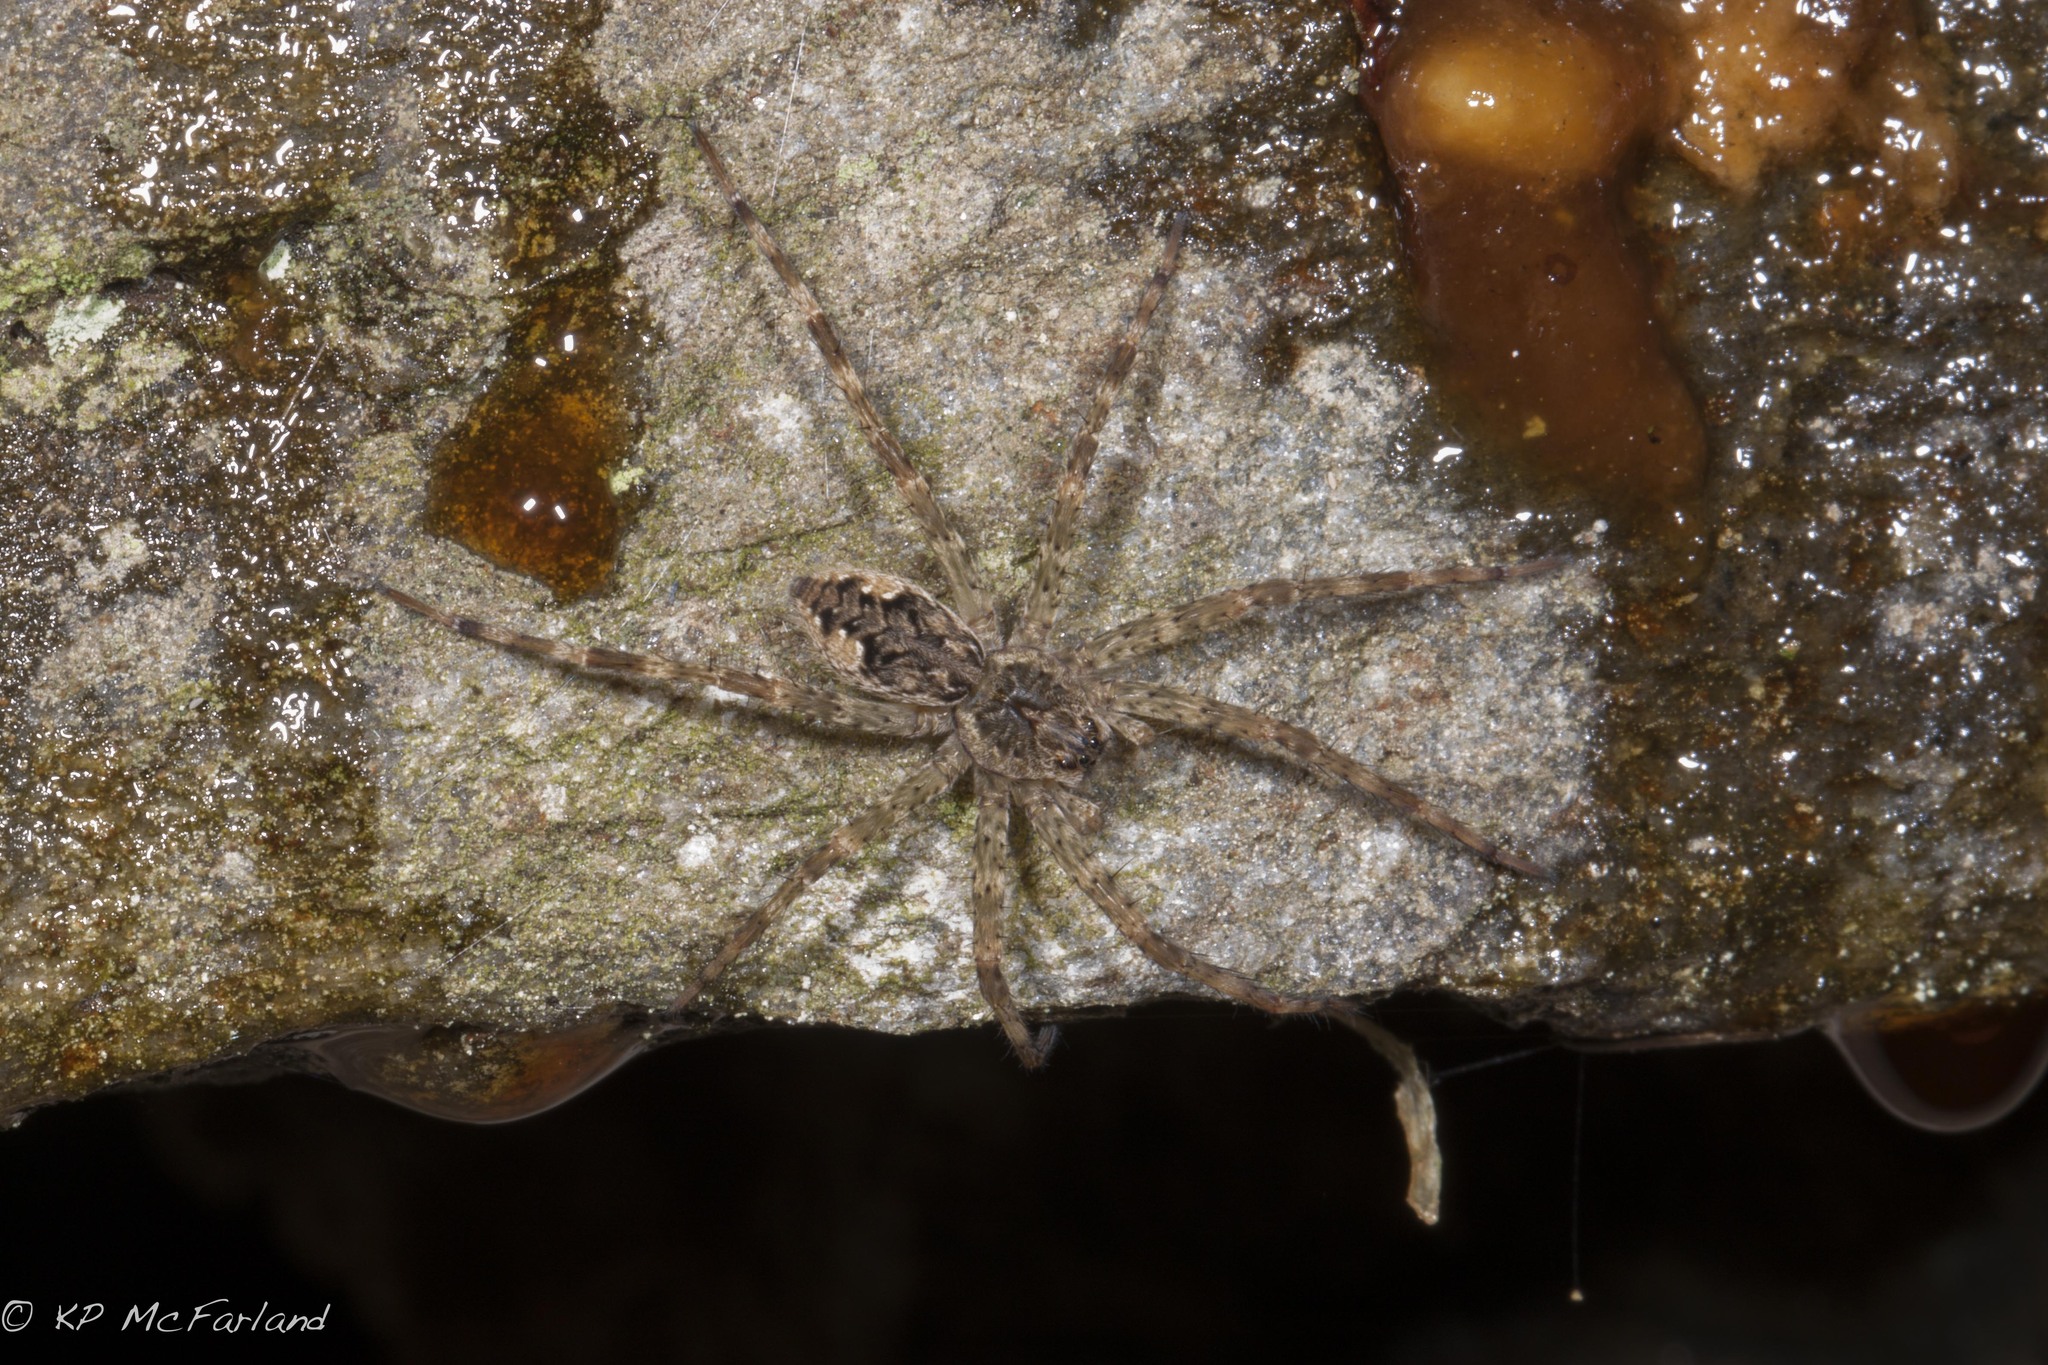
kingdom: Animalia
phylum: Arthropoda
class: Arachnida
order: Araneae
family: Pisauridae
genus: Dolomedes
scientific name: Dolomedes tenebrosus
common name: Dark fishing spider
